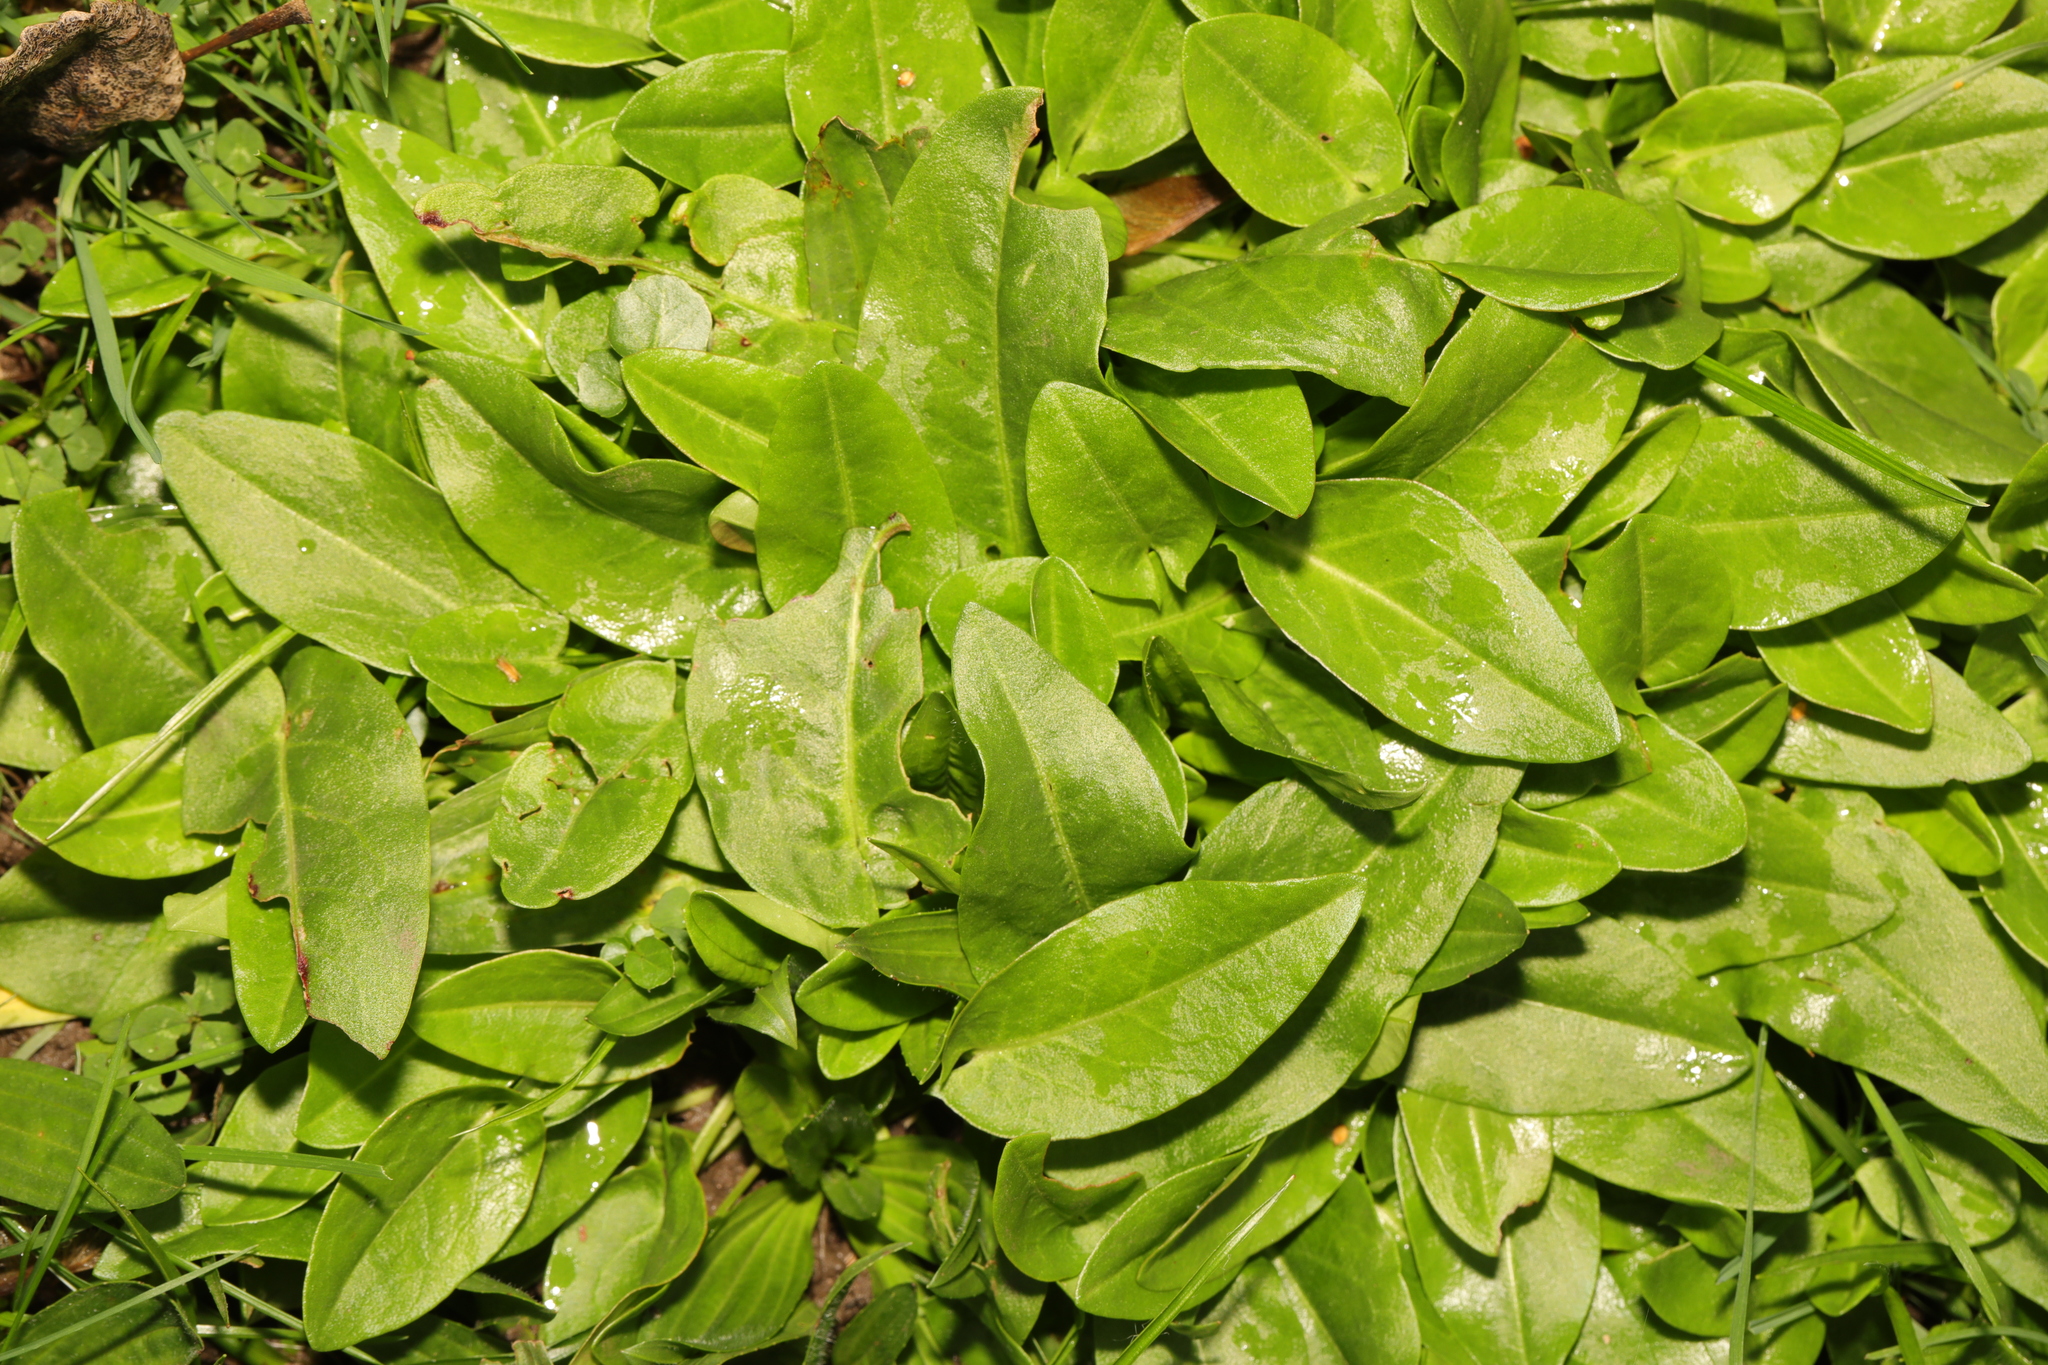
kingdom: Plantae
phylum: Tracheophyta
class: Magnoliopsida
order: Caryophyllales
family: Polygonaceae
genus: Rumex
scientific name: Rumex acetosa
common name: Garden sorrel
